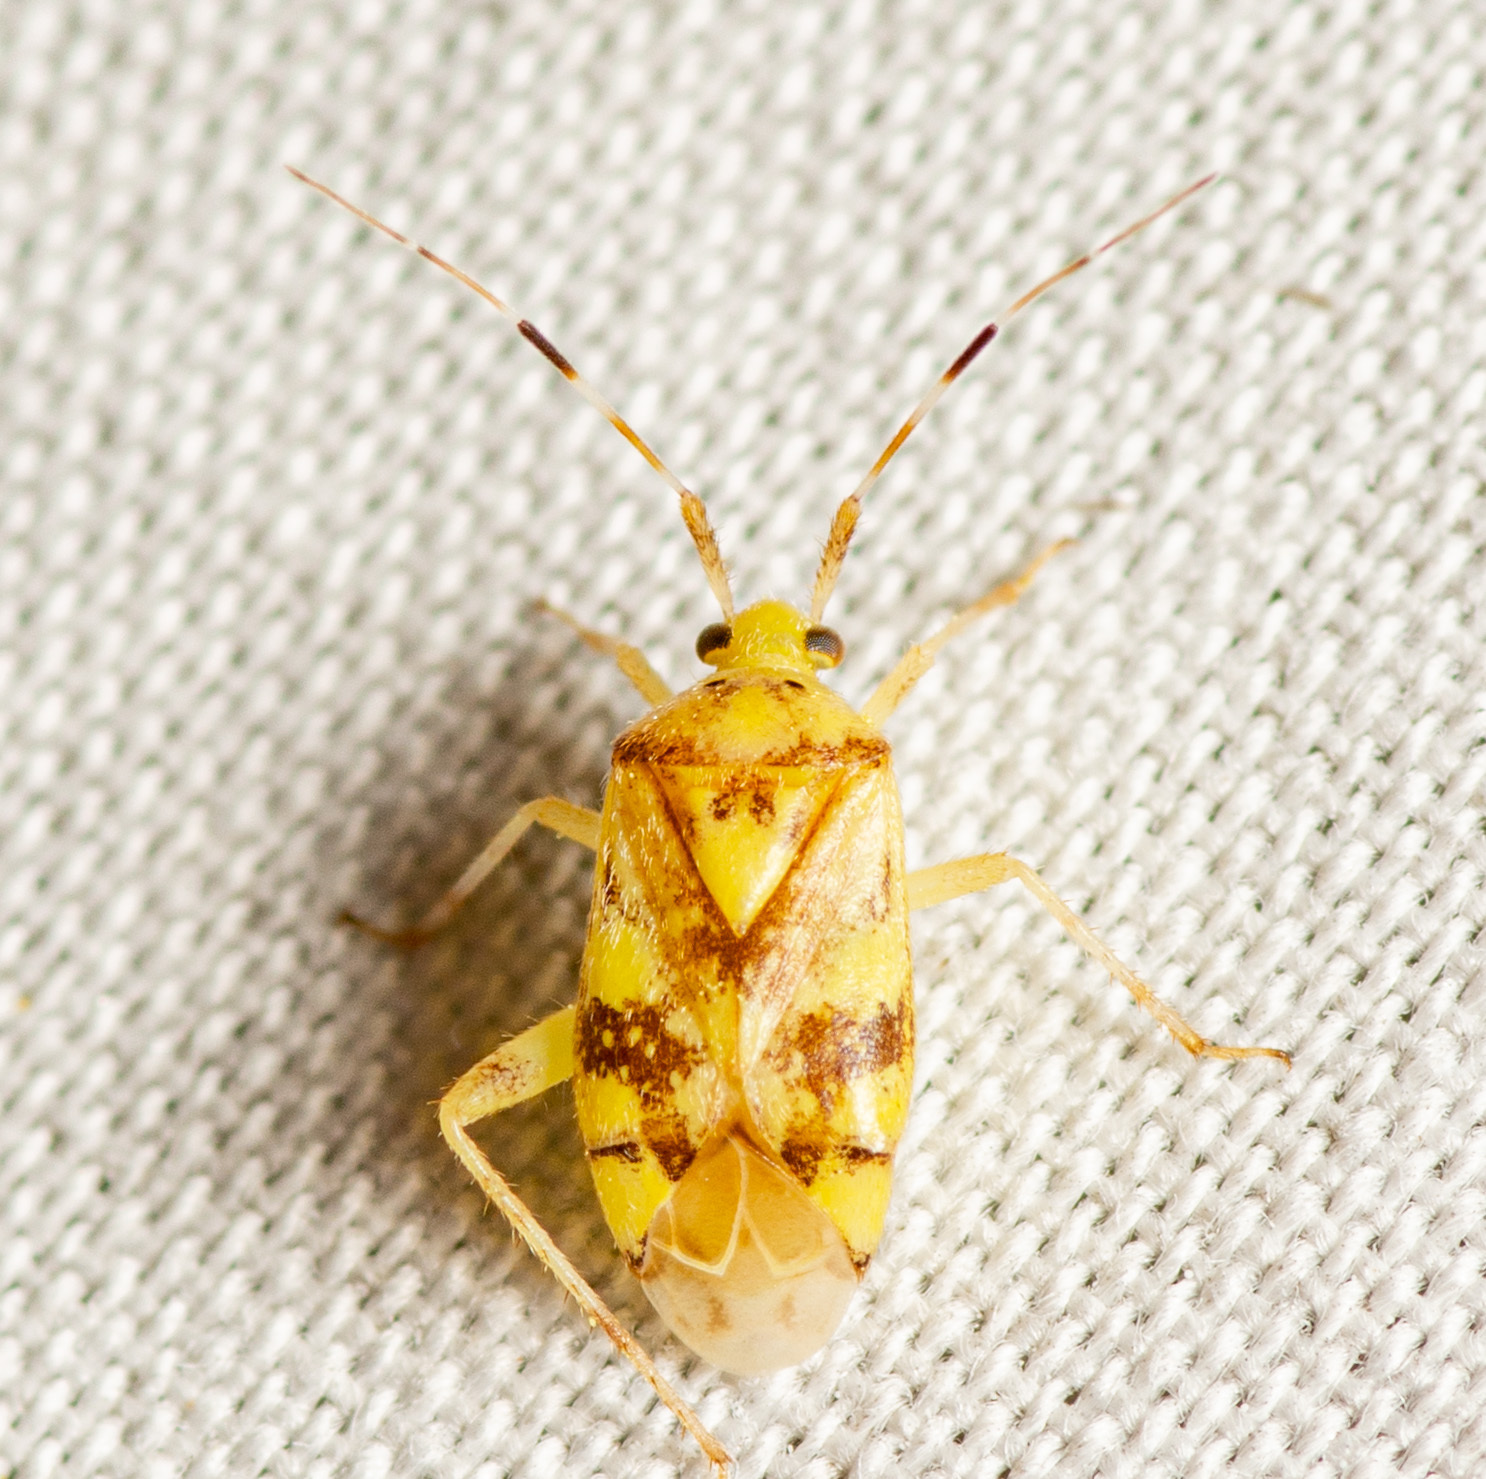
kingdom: Animalia
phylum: Arthropoda
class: Insecta
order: Hemiptera
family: Miridae
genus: Taedia
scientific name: Taedia multisignata
